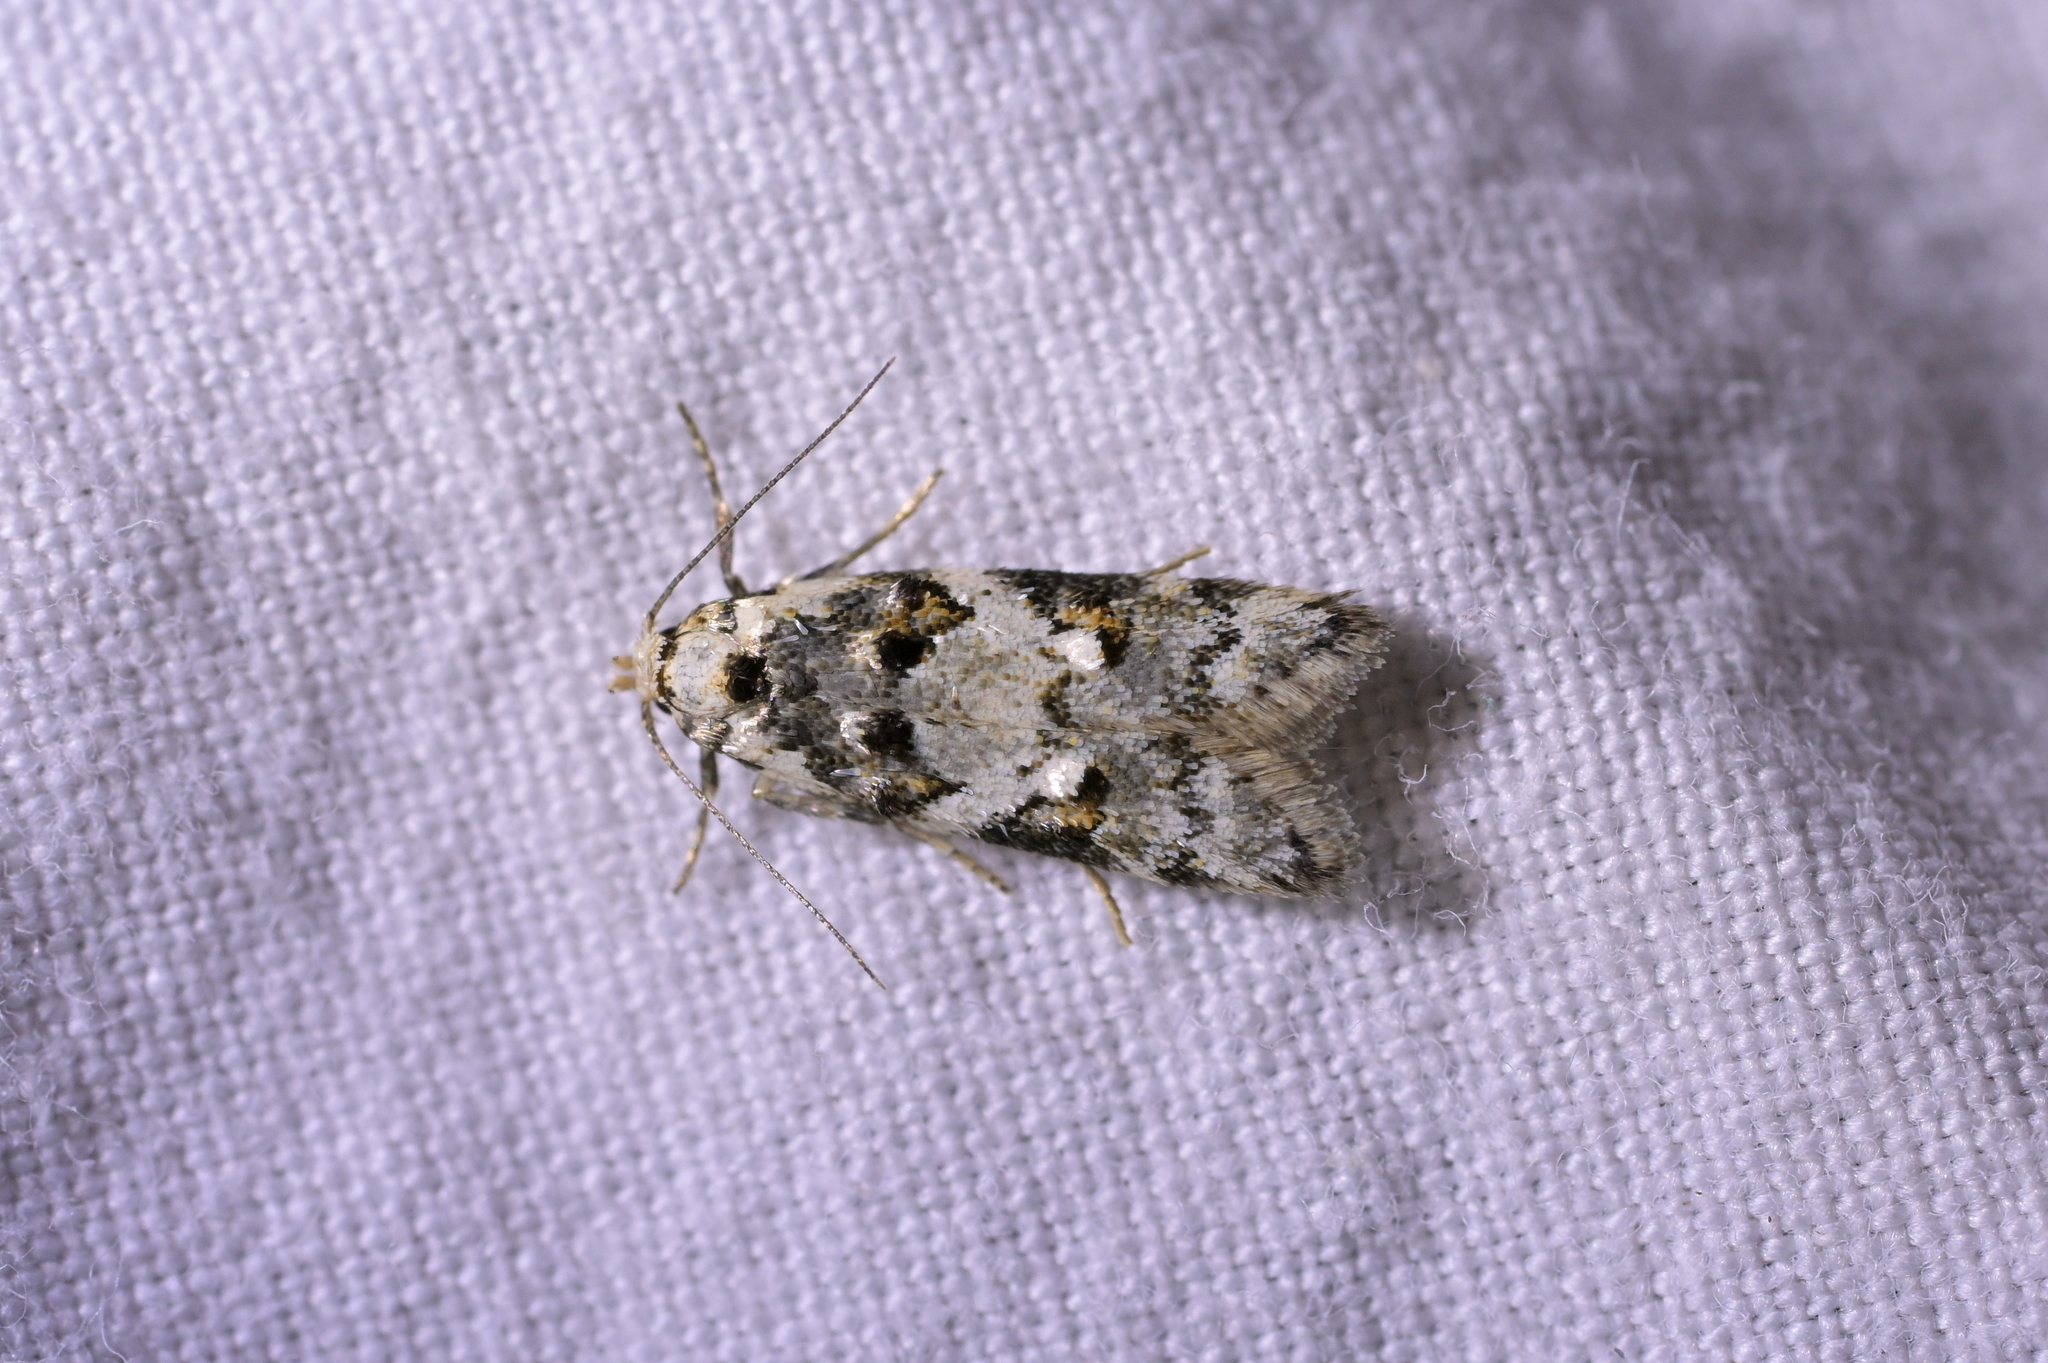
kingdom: Animalia
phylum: Arthropoda
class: Insecta
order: Lepidoptera
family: Oecophoridae
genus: Trachypepla
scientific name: Trachypepla galaxias
